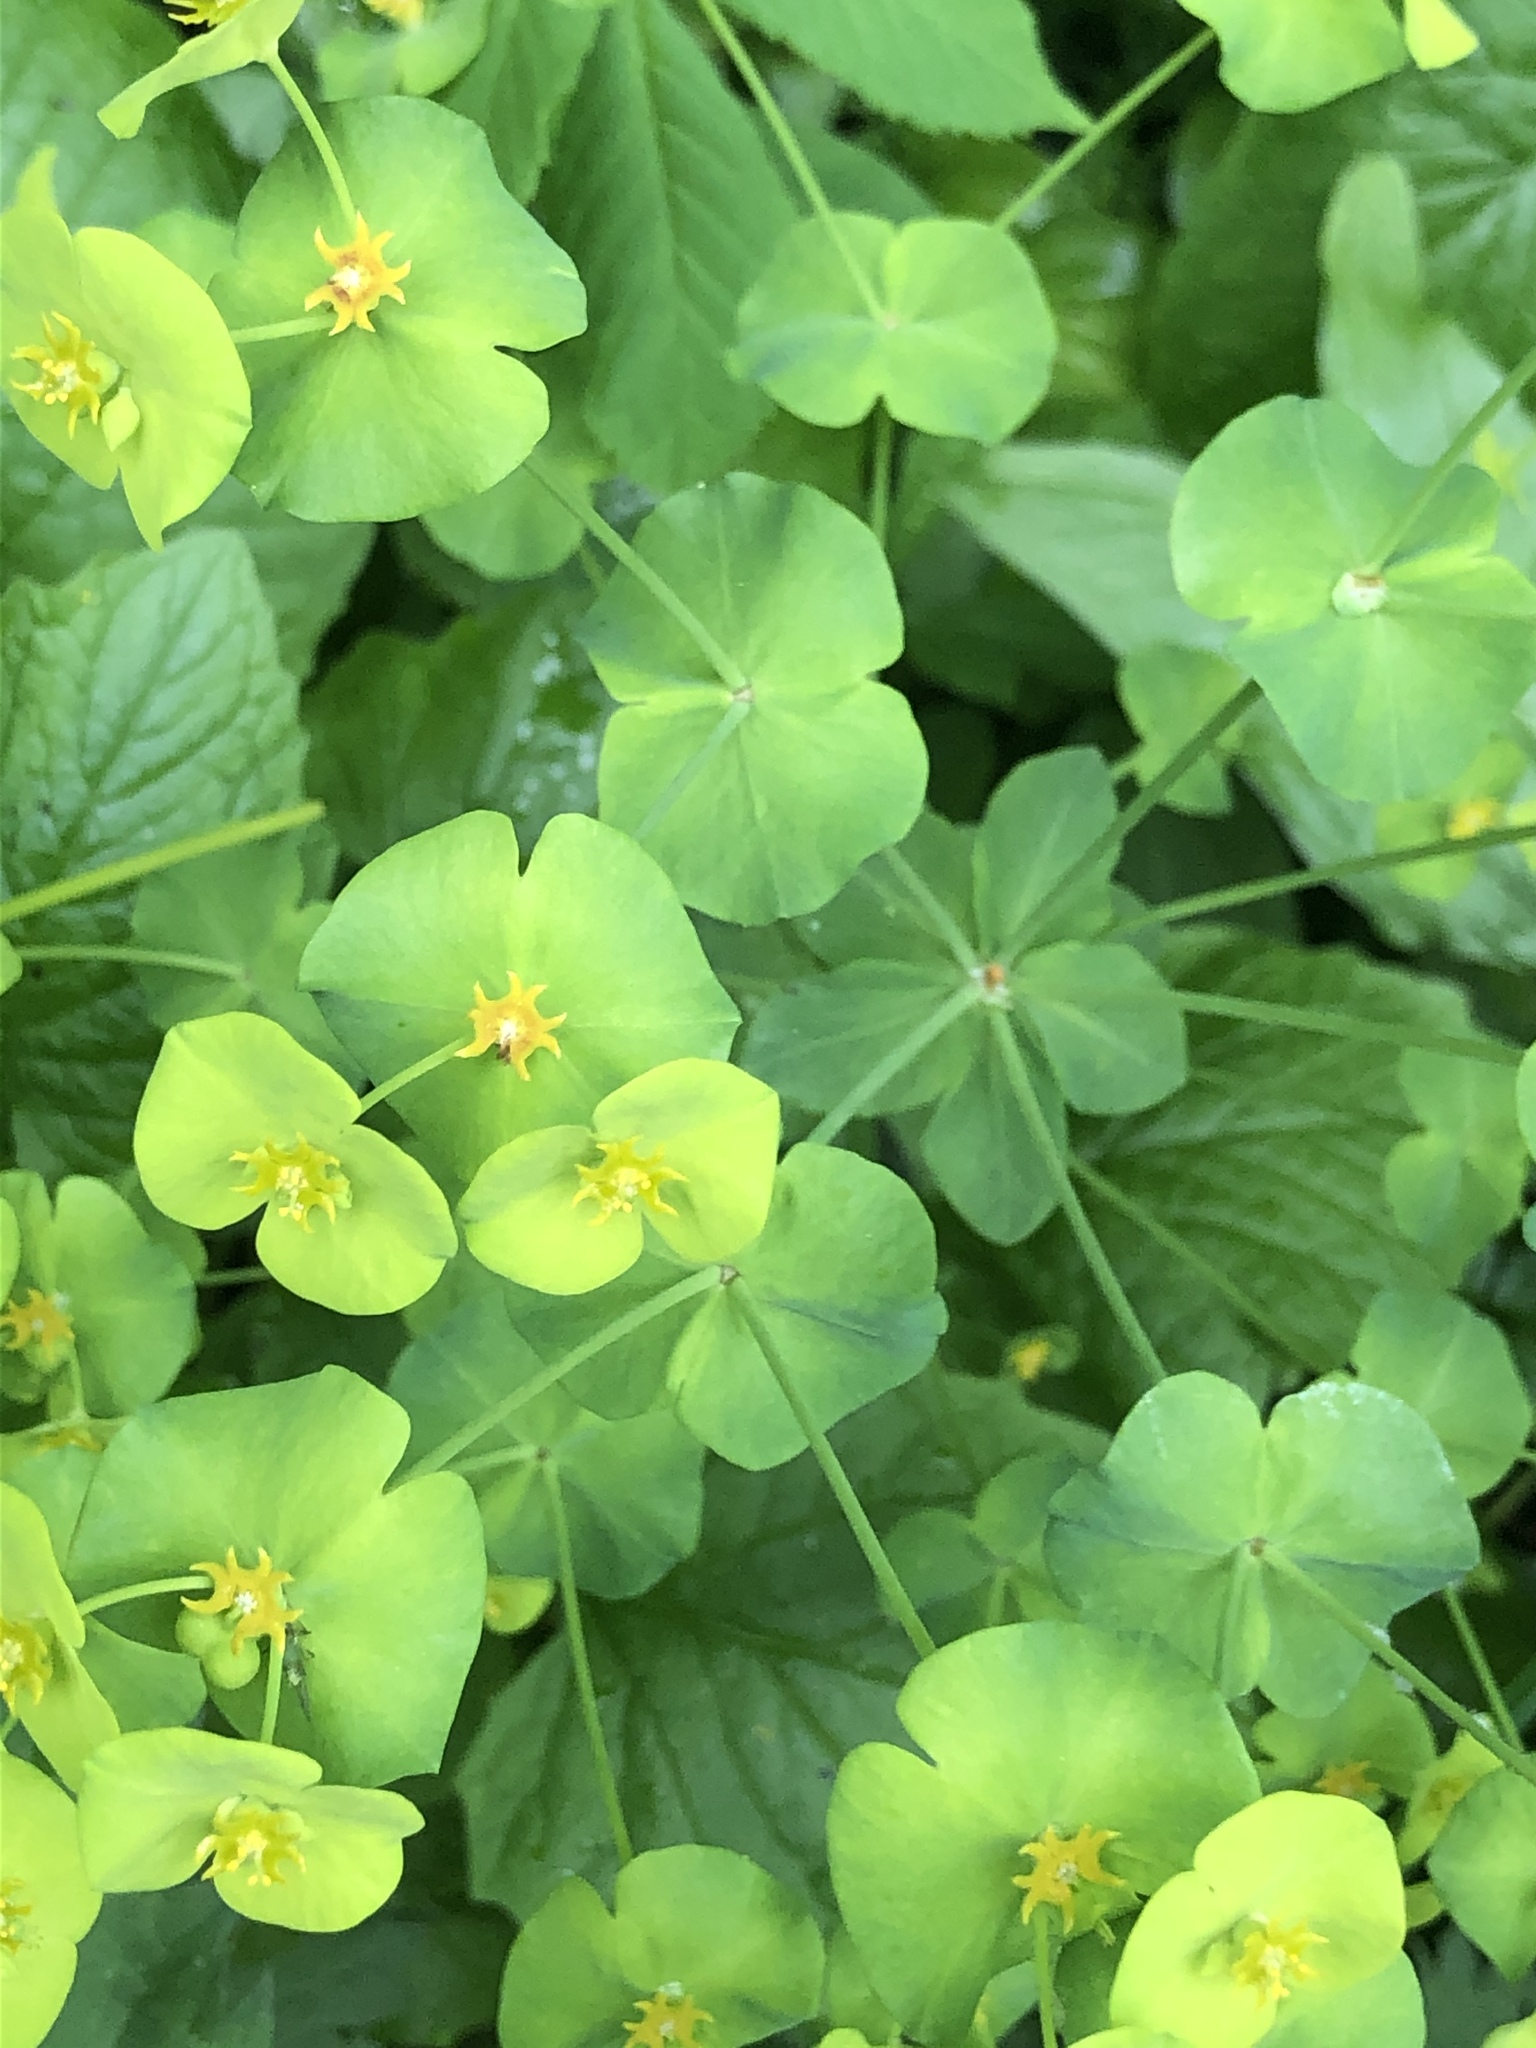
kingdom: Plantae
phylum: Tracheophyta
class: Magnoliopsida
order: Malpighiales
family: Euphorbiaceae
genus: Euphorbia
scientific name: Euphorbia amygdaloides
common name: Wood spurge
